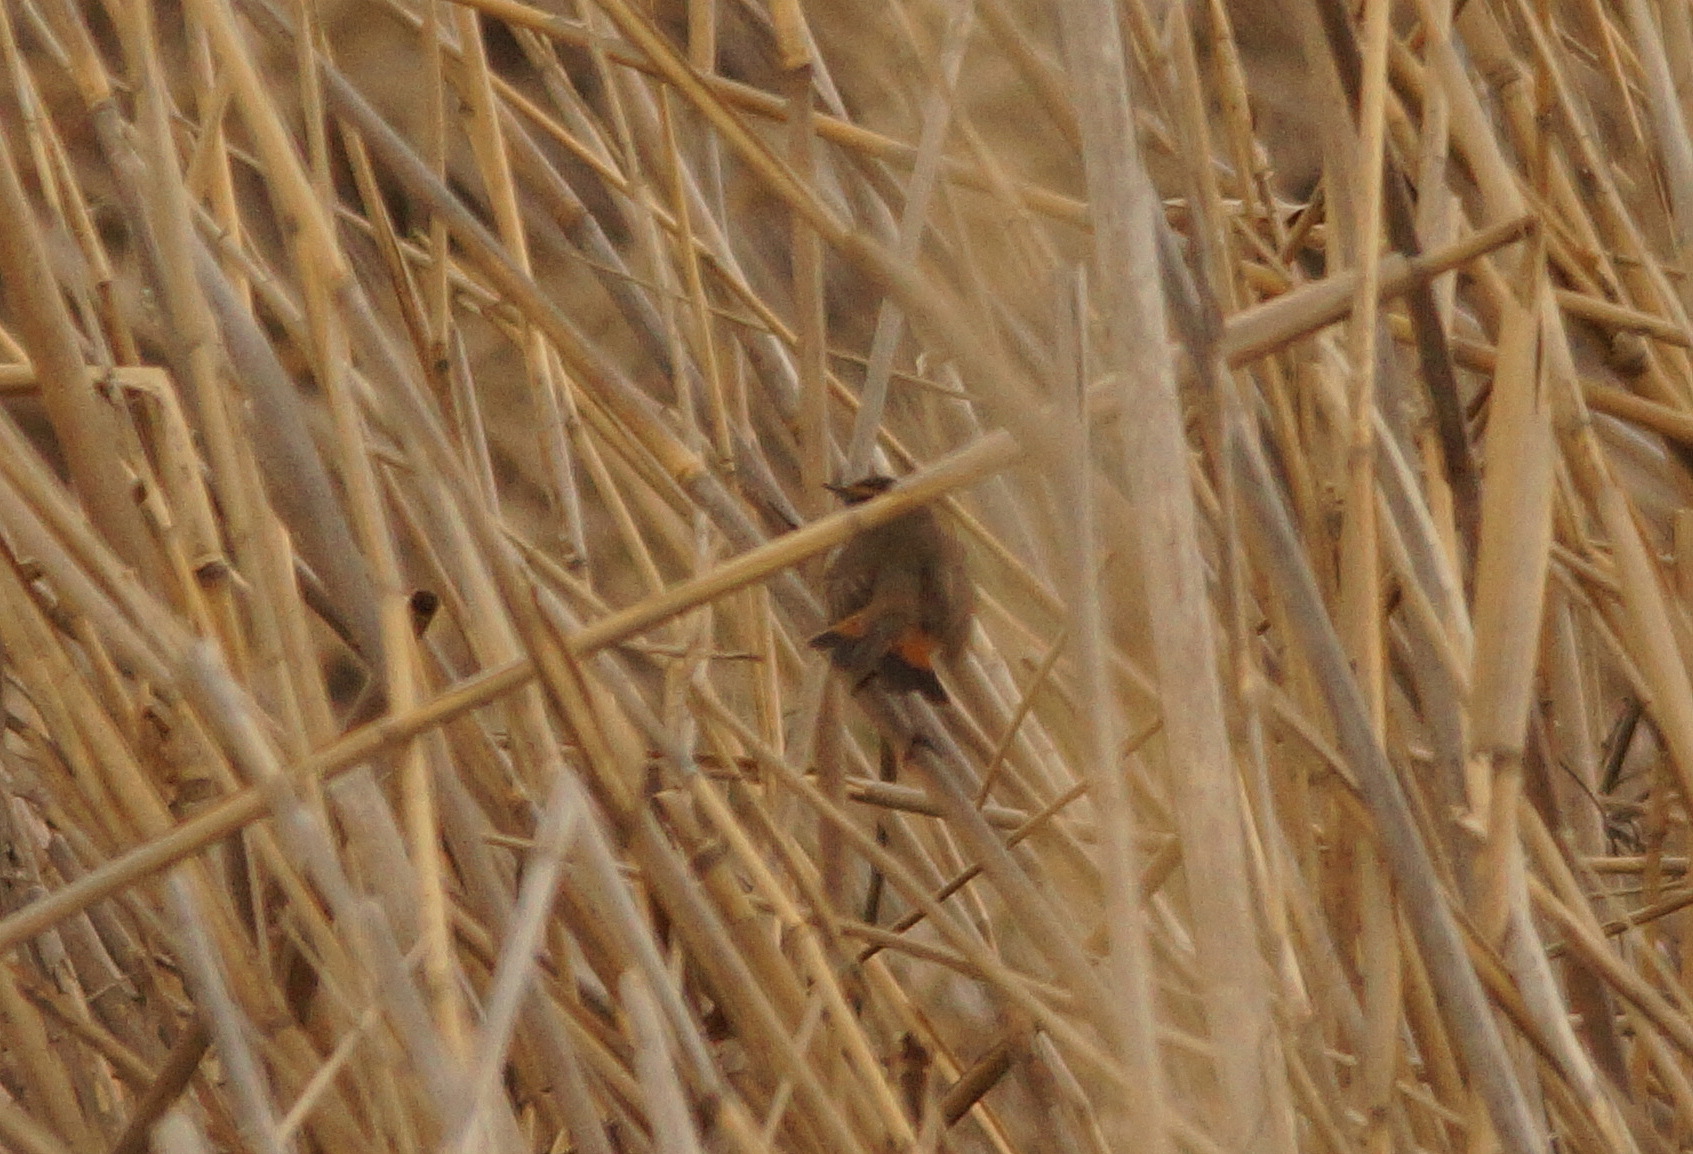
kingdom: Animalia
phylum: Chordata
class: Aves
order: Passeriformes
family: Muscicapidae
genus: Luscinia
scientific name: Luscinia svecica
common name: Bluethroat
